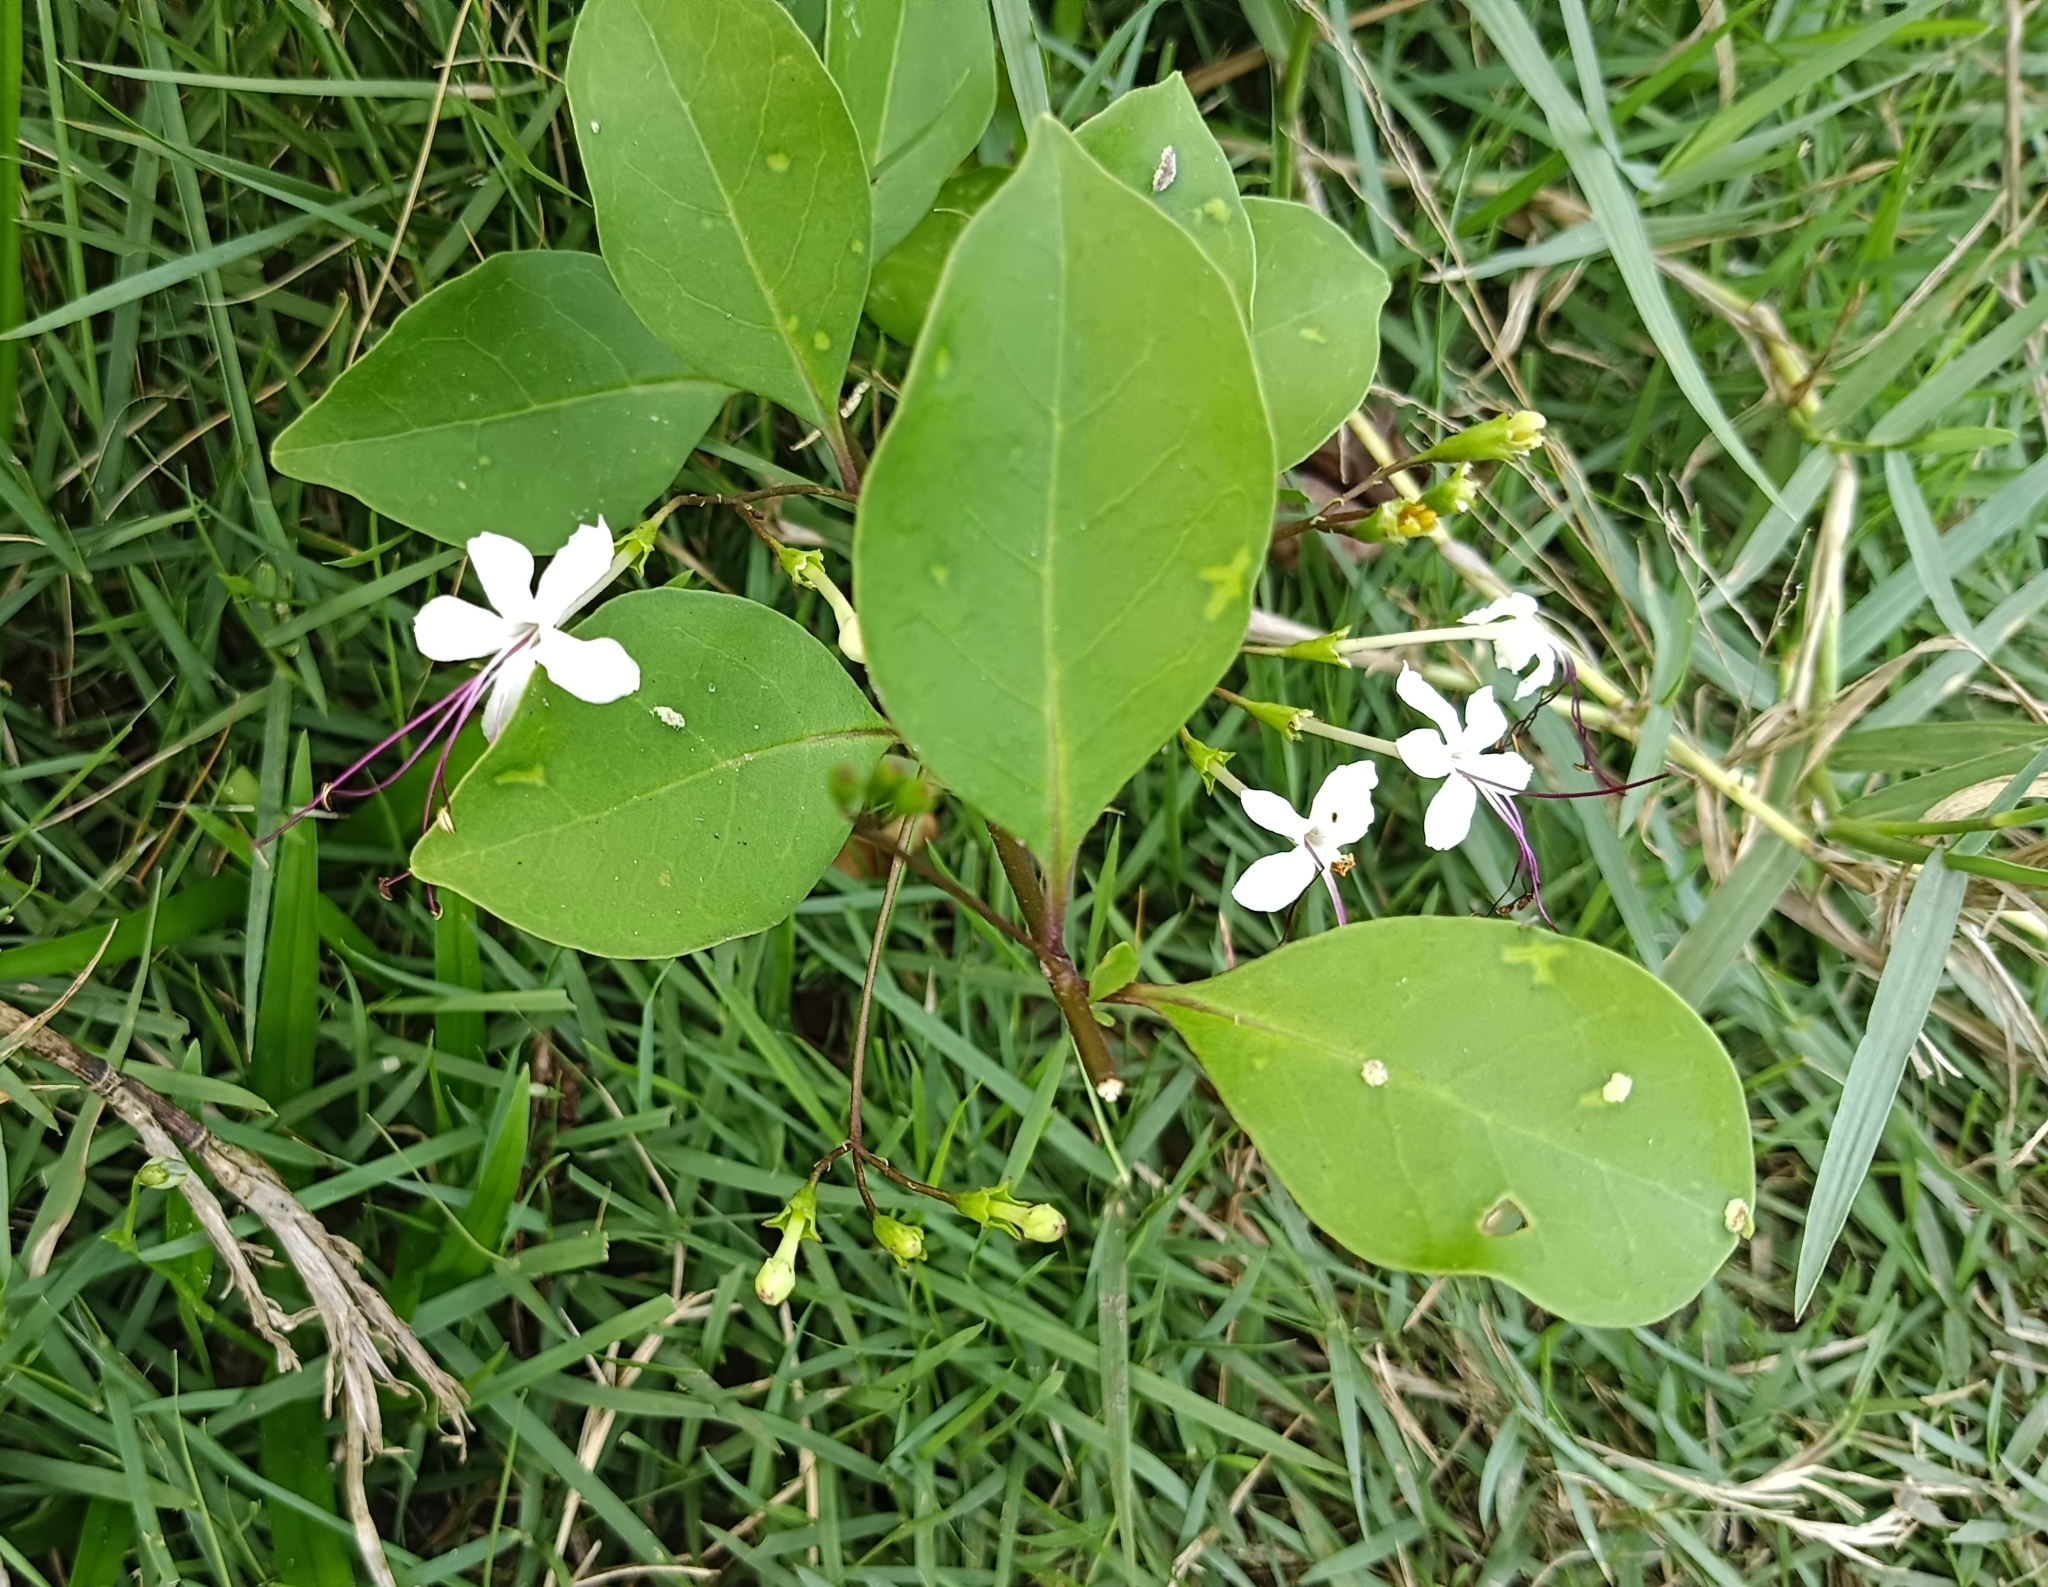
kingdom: Plantae
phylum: Tracheophyta
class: Magnoliopsida
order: Lamiales
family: Lamiaceae
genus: Volkameria
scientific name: Volkameria inermis
